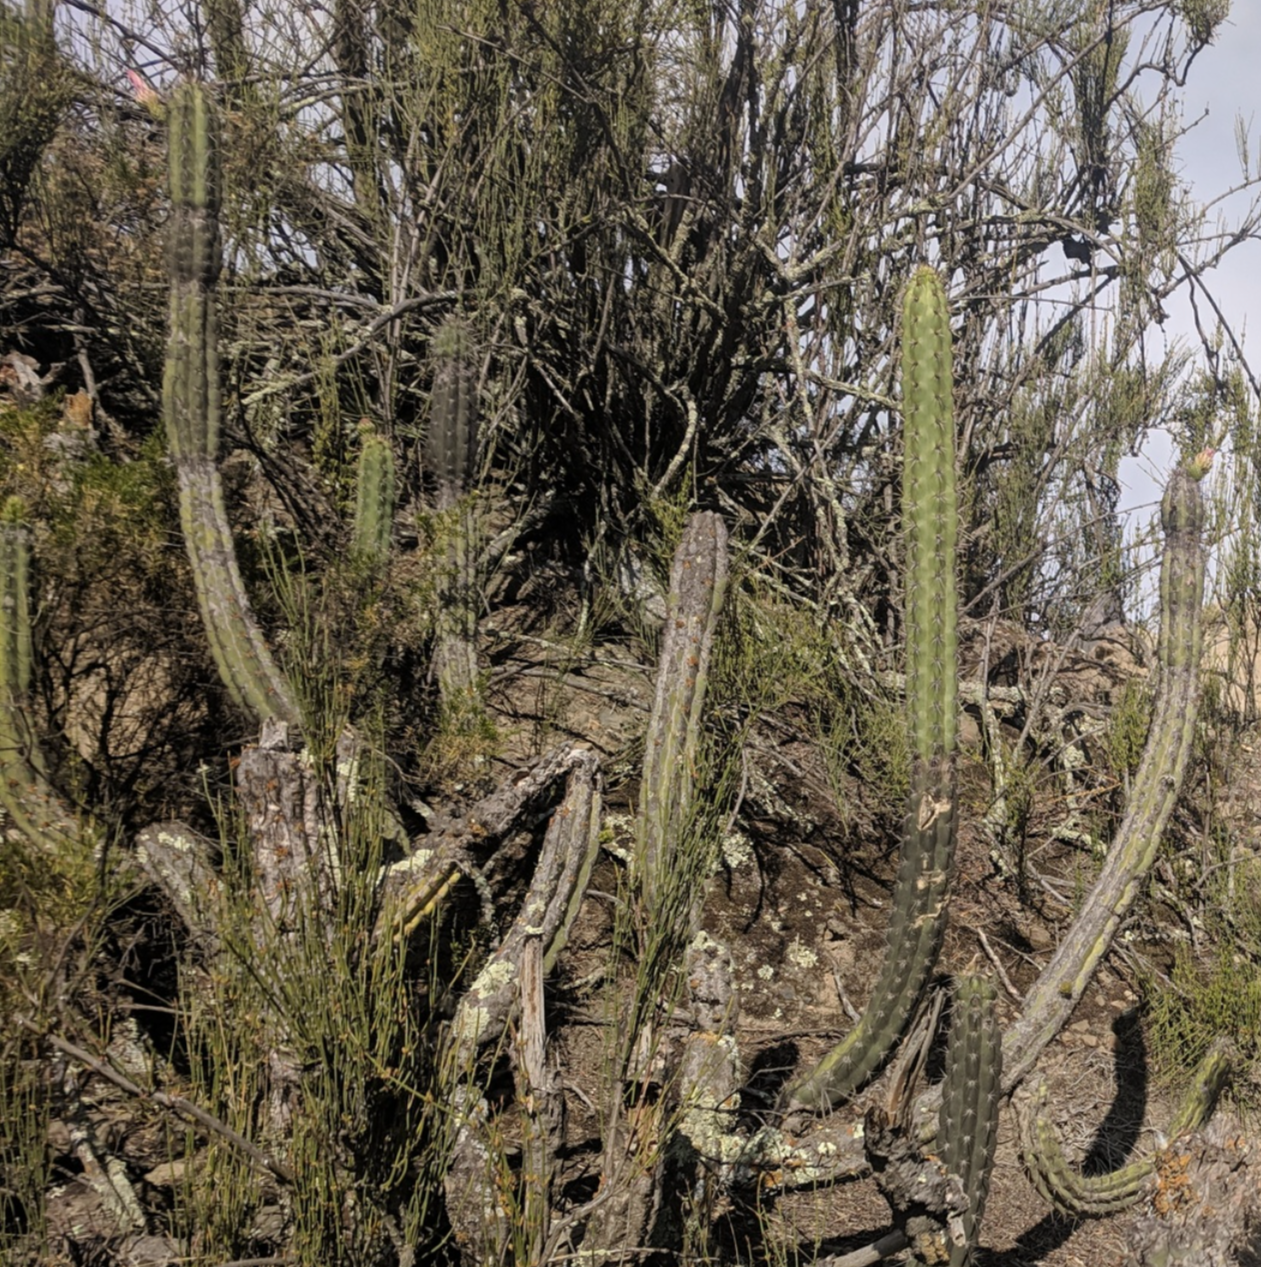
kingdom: Plantae
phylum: Tracheophyta
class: Magnoliopsida
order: Caryophyllales
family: Cactaceae
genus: Corryocactus
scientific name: Corryocactus melanotrichus
